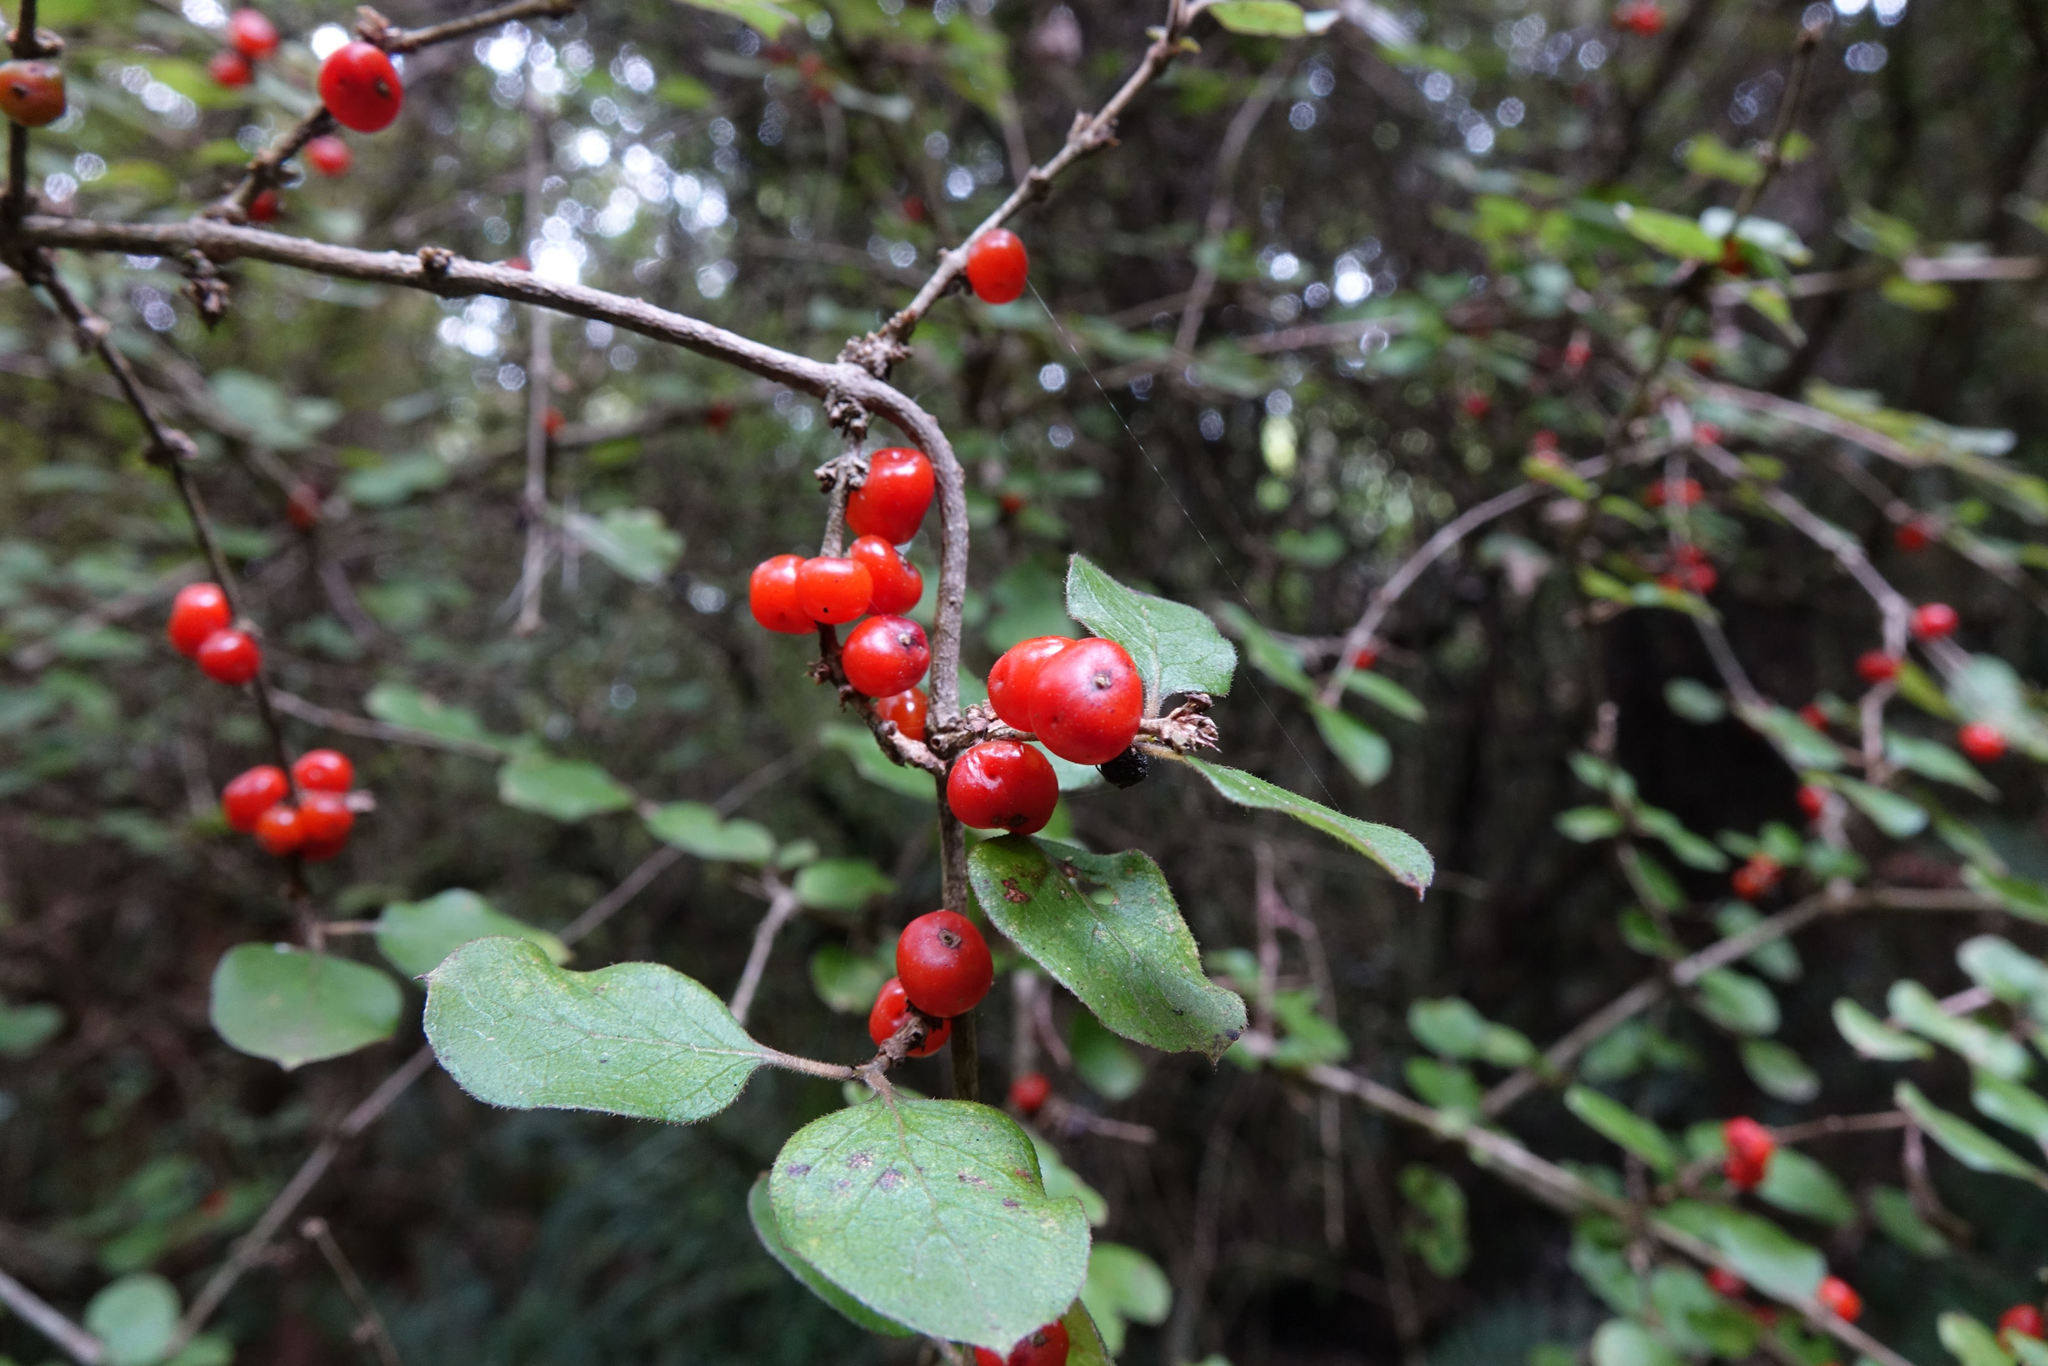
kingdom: Plantae
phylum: Tracheophyta
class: Magnoliopsida
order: Gentianales
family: Rubiaceae
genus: Coprosma
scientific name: Coprosma rotundifolia
